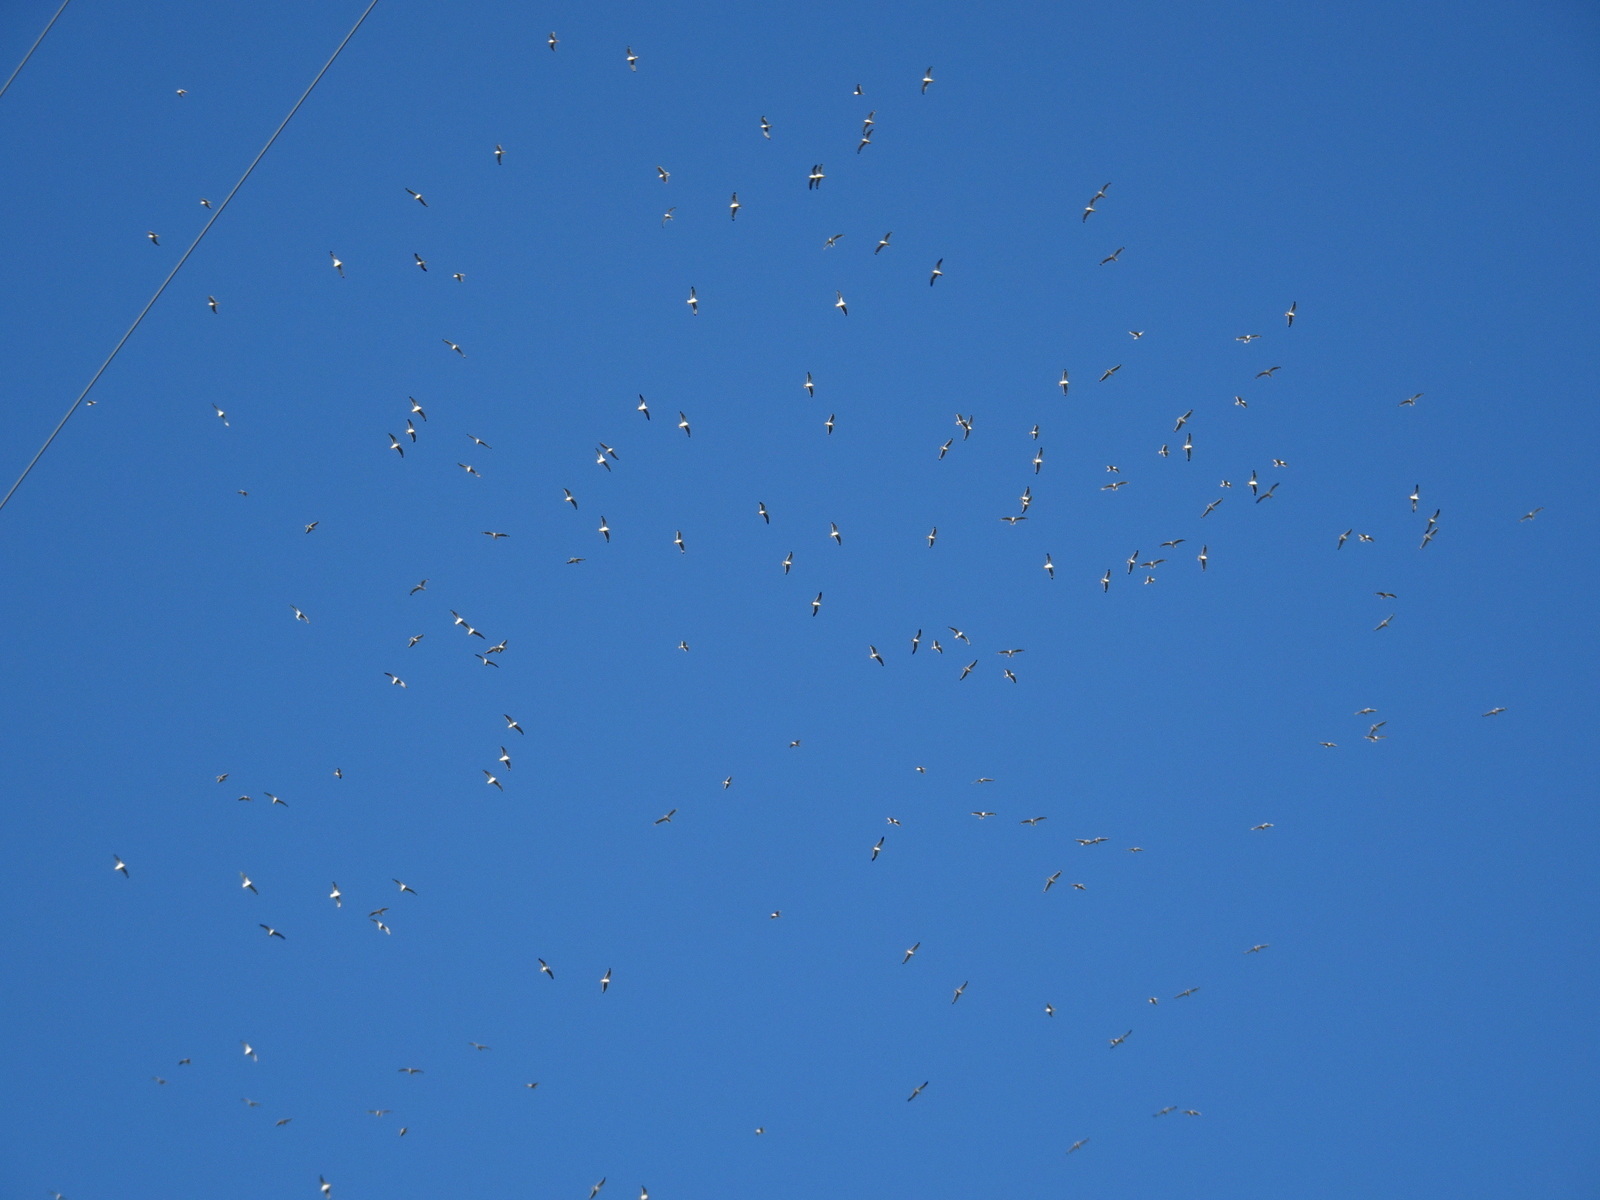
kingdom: Animalia
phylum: Chordata
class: Aves
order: Charadriiformes
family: Laridae
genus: Leucophaeus
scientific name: Leucophaeus pipixcan
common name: Franklin's gull
